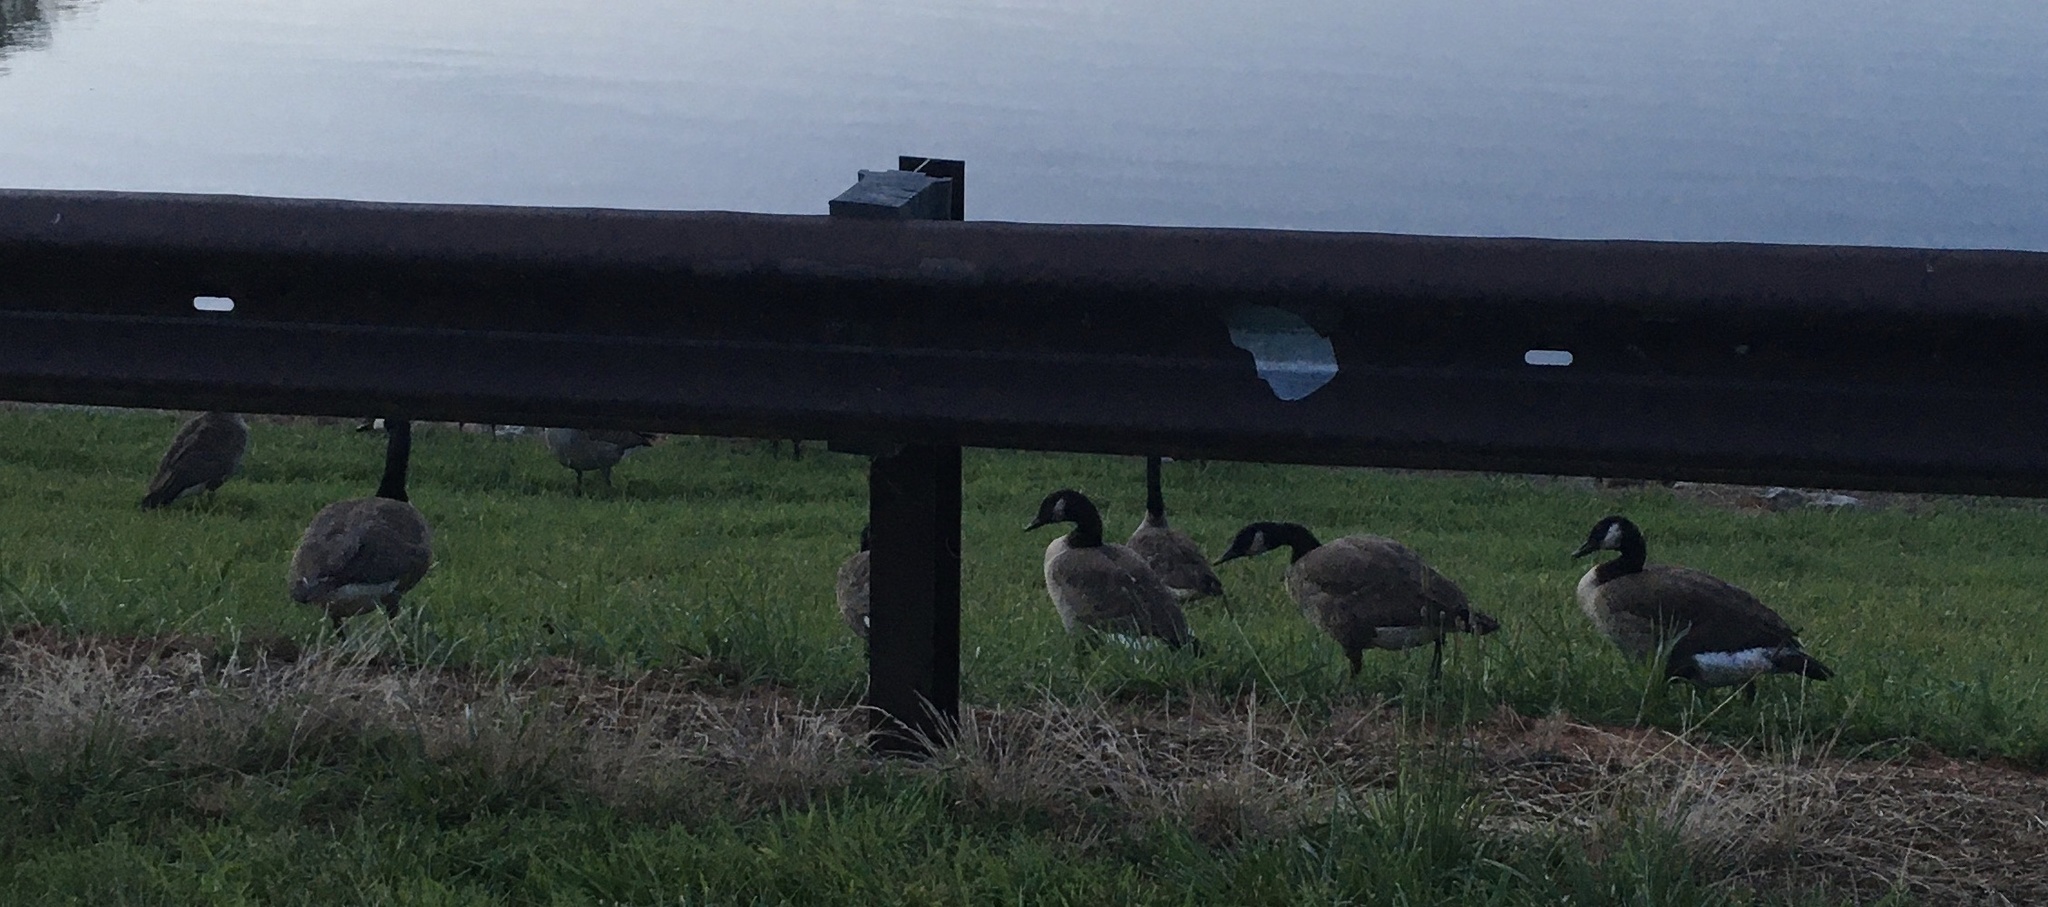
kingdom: Animalia
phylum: Chordata
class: Aves
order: Anseriformes
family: Anatidae
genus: Branta
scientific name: Branta canadensis
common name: Canada goose
